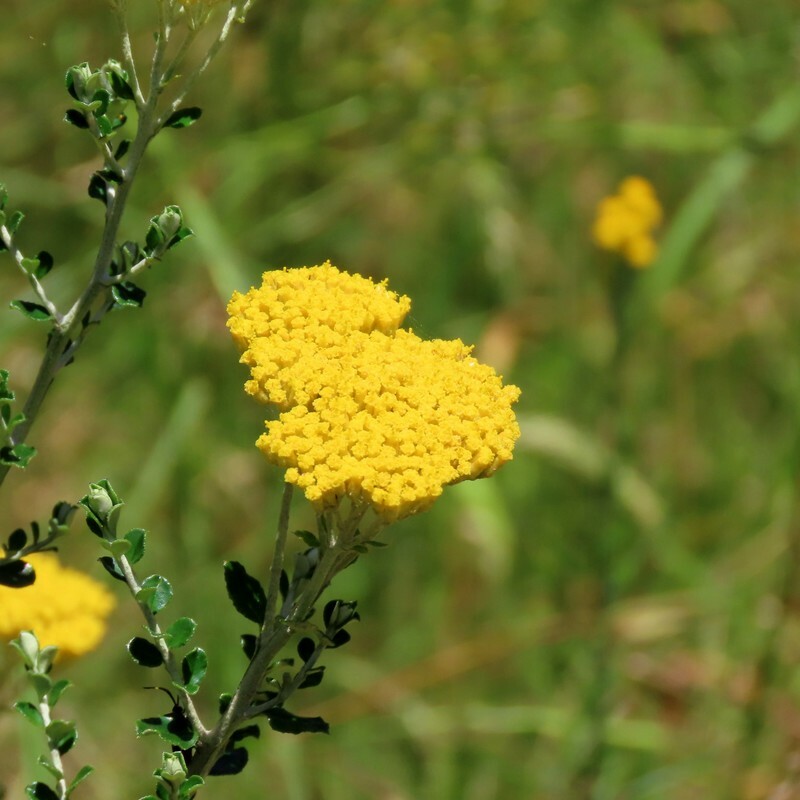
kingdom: Plantae
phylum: Tracheophyta
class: Magnoliopsida
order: Asterales
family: Asteraceae
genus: Ozothamnus
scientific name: Ozothamnus obcordatus
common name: Grey everlasting
